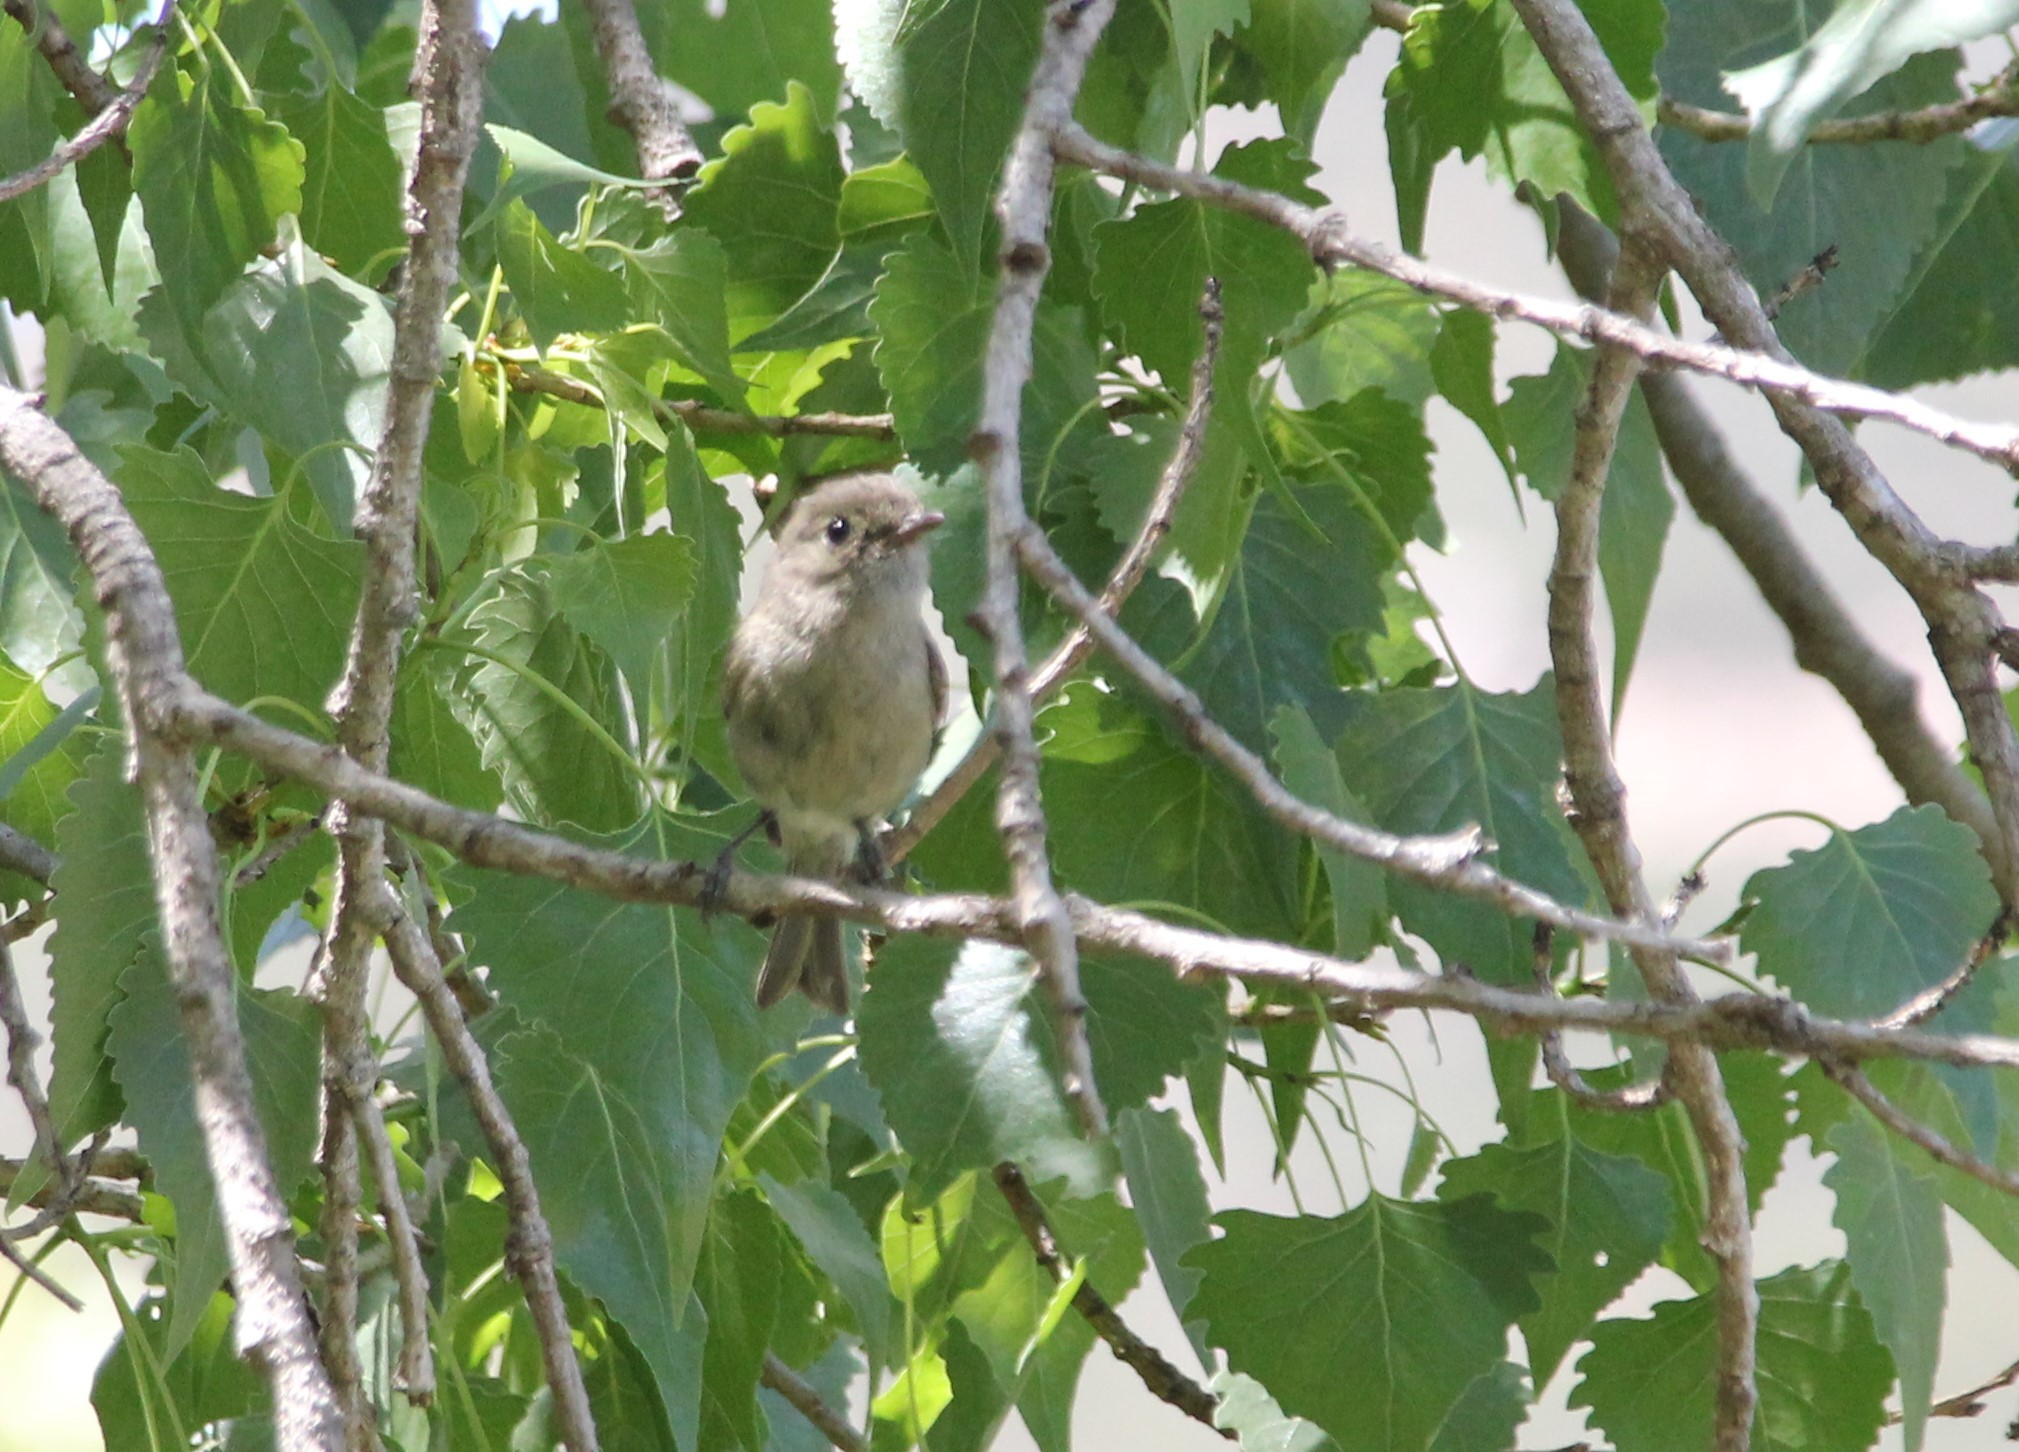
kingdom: Animalia
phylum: Chordata
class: Aves
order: Passeriformes
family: Vireonidae
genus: Vireo
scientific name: Vireo huttoni
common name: Hutton's vireo
